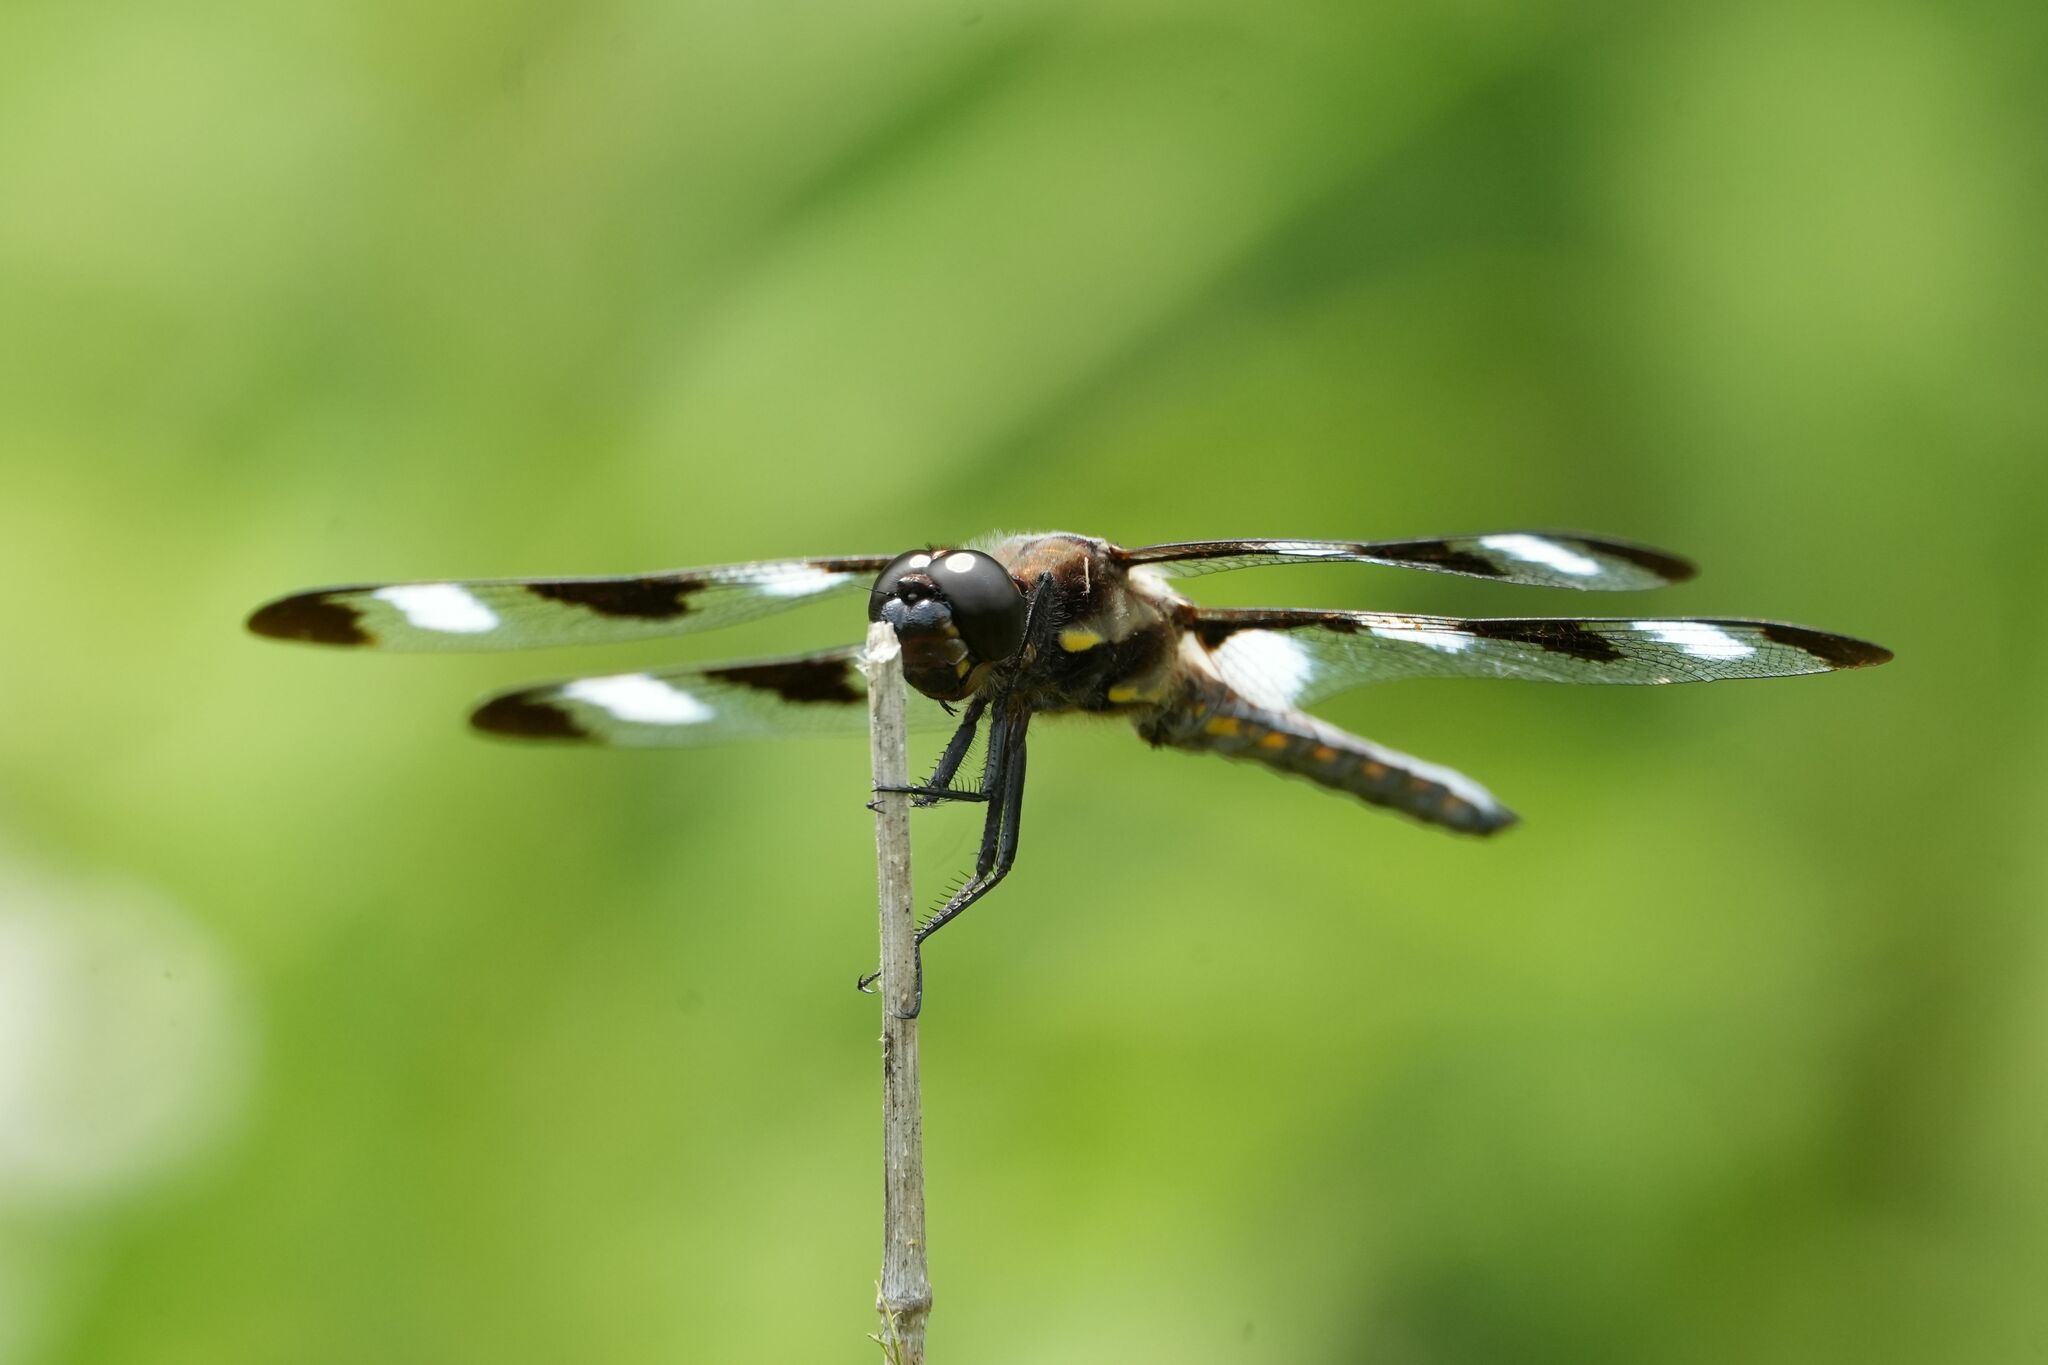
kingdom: Animalia
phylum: Arthropoda
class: Insecta
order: Odonata
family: Libellulidae
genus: Libellula
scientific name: Libellula pulchella
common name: Twelve-spotted skimmer
